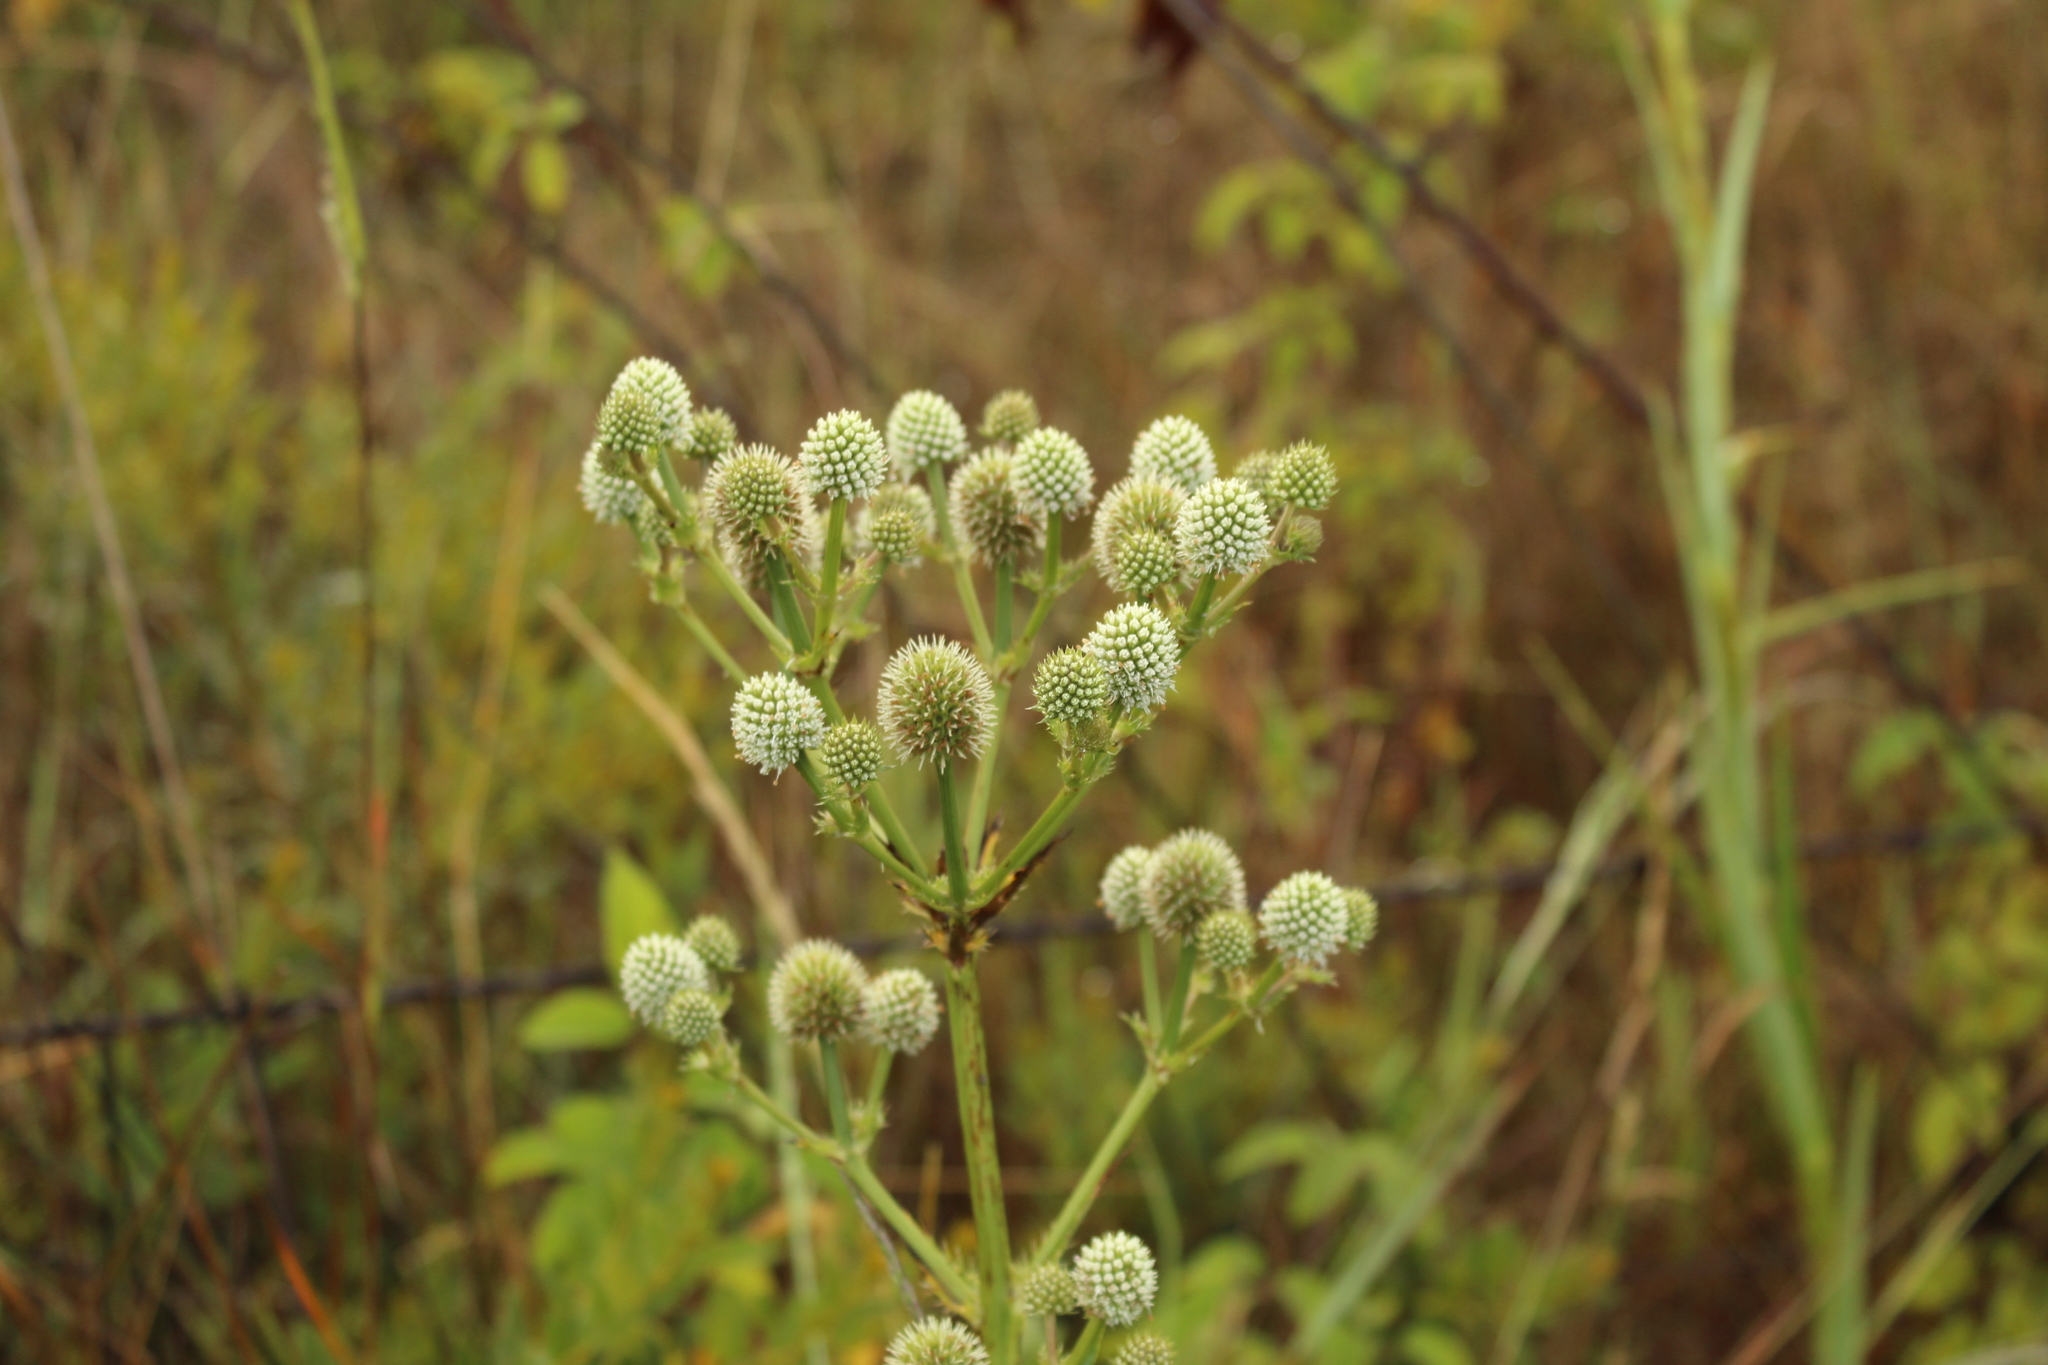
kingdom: Plantae
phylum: Tracheophyta
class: Magnoliopsida
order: Apiales
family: Apiaceae
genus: Eryngium
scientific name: Eryngium humboldtii
